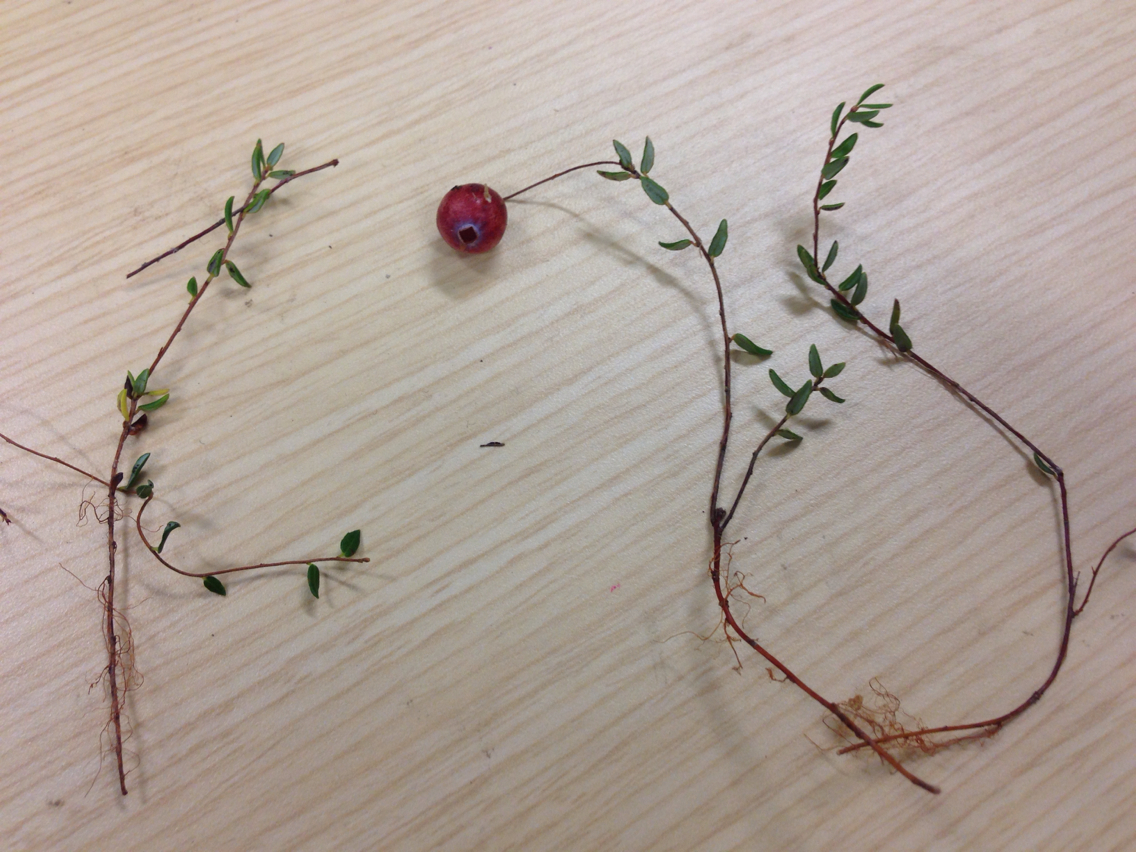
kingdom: Plantae
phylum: Tracheophyta
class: Magnoliopsida
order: Ericales
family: Ericaceae
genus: Vaccinium
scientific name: Vaccinium oxycoccos
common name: Cranberry
